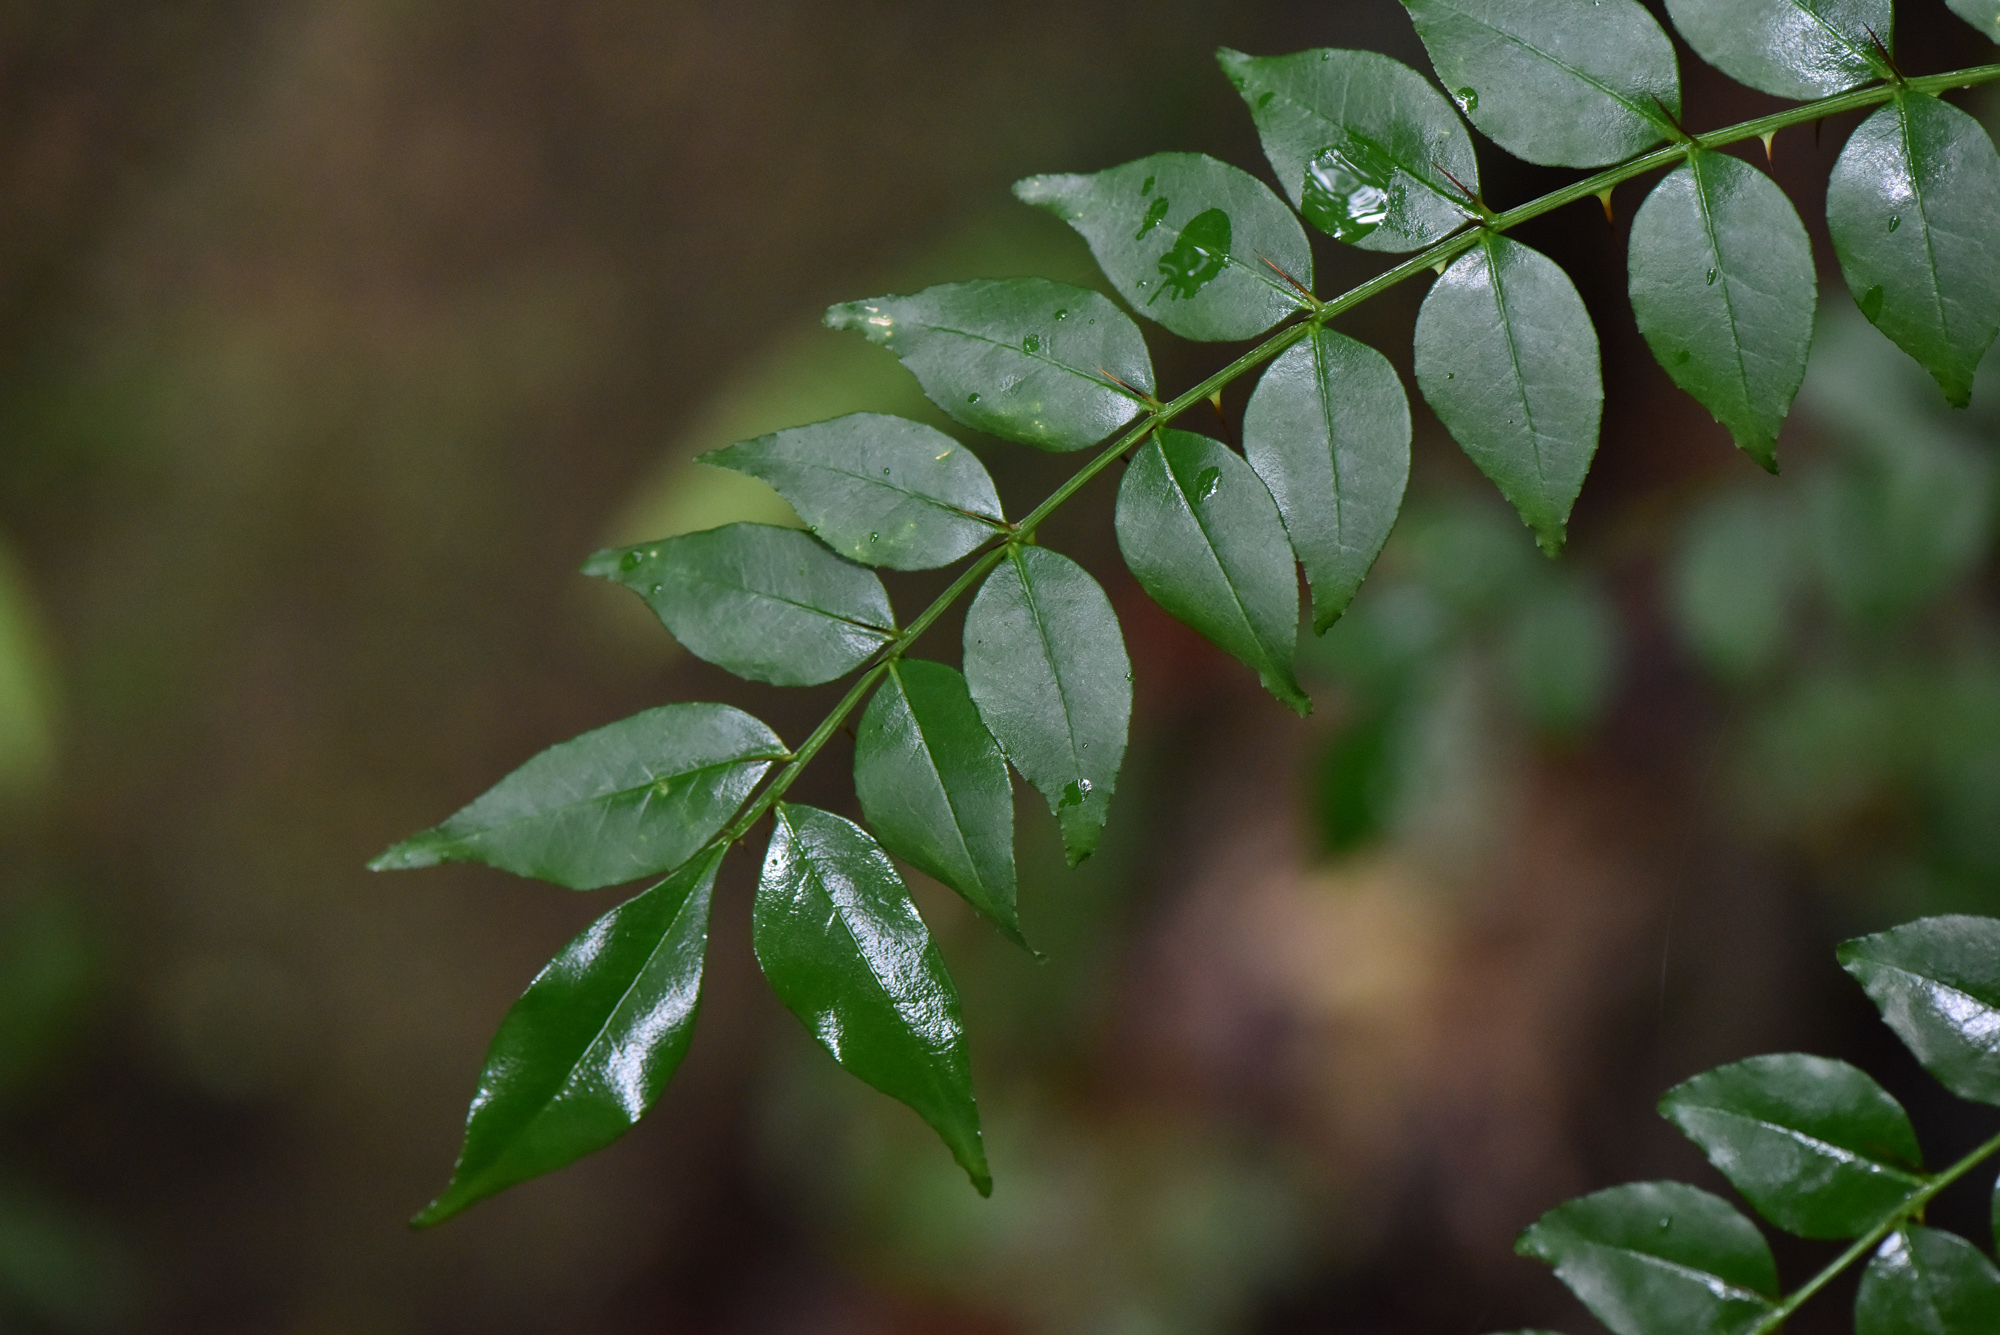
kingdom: Plantae
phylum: Tracheophyta
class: Magnoliopsida
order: Sapindales
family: Rutaceae
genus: Zanthoxylum
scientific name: Zanthoxylum scandens
